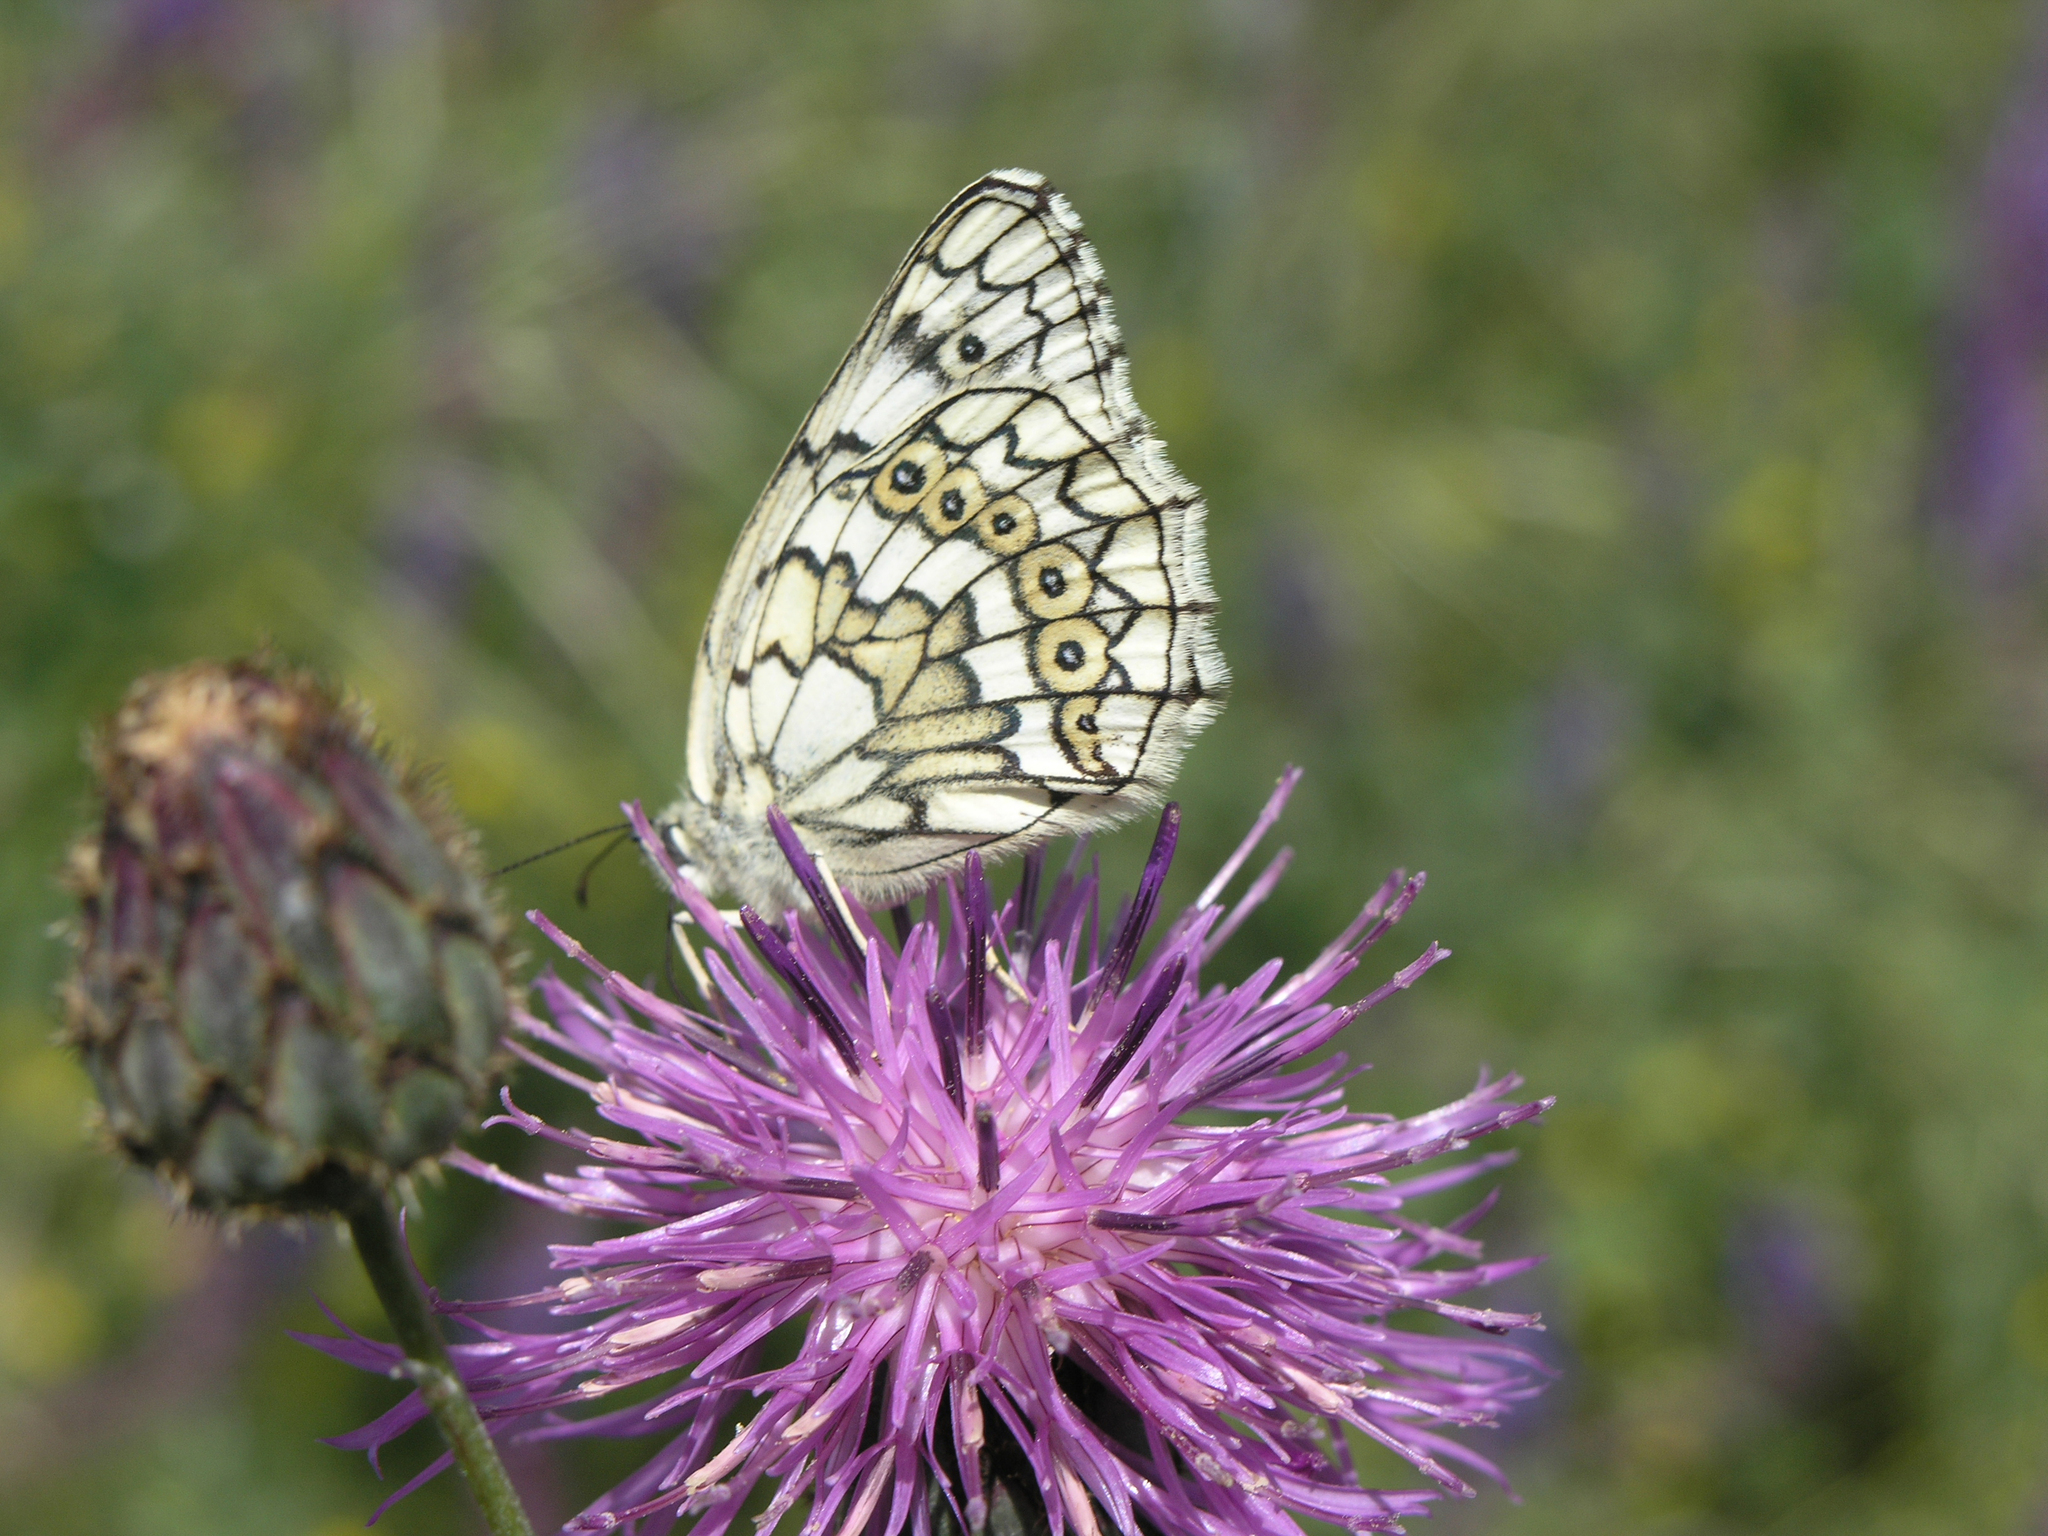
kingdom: Animalia
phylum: Arthropoda
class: Insecta
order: Lepidoptera
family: Nymphalidae
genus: Melanargia
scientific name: Melanargia japygia
